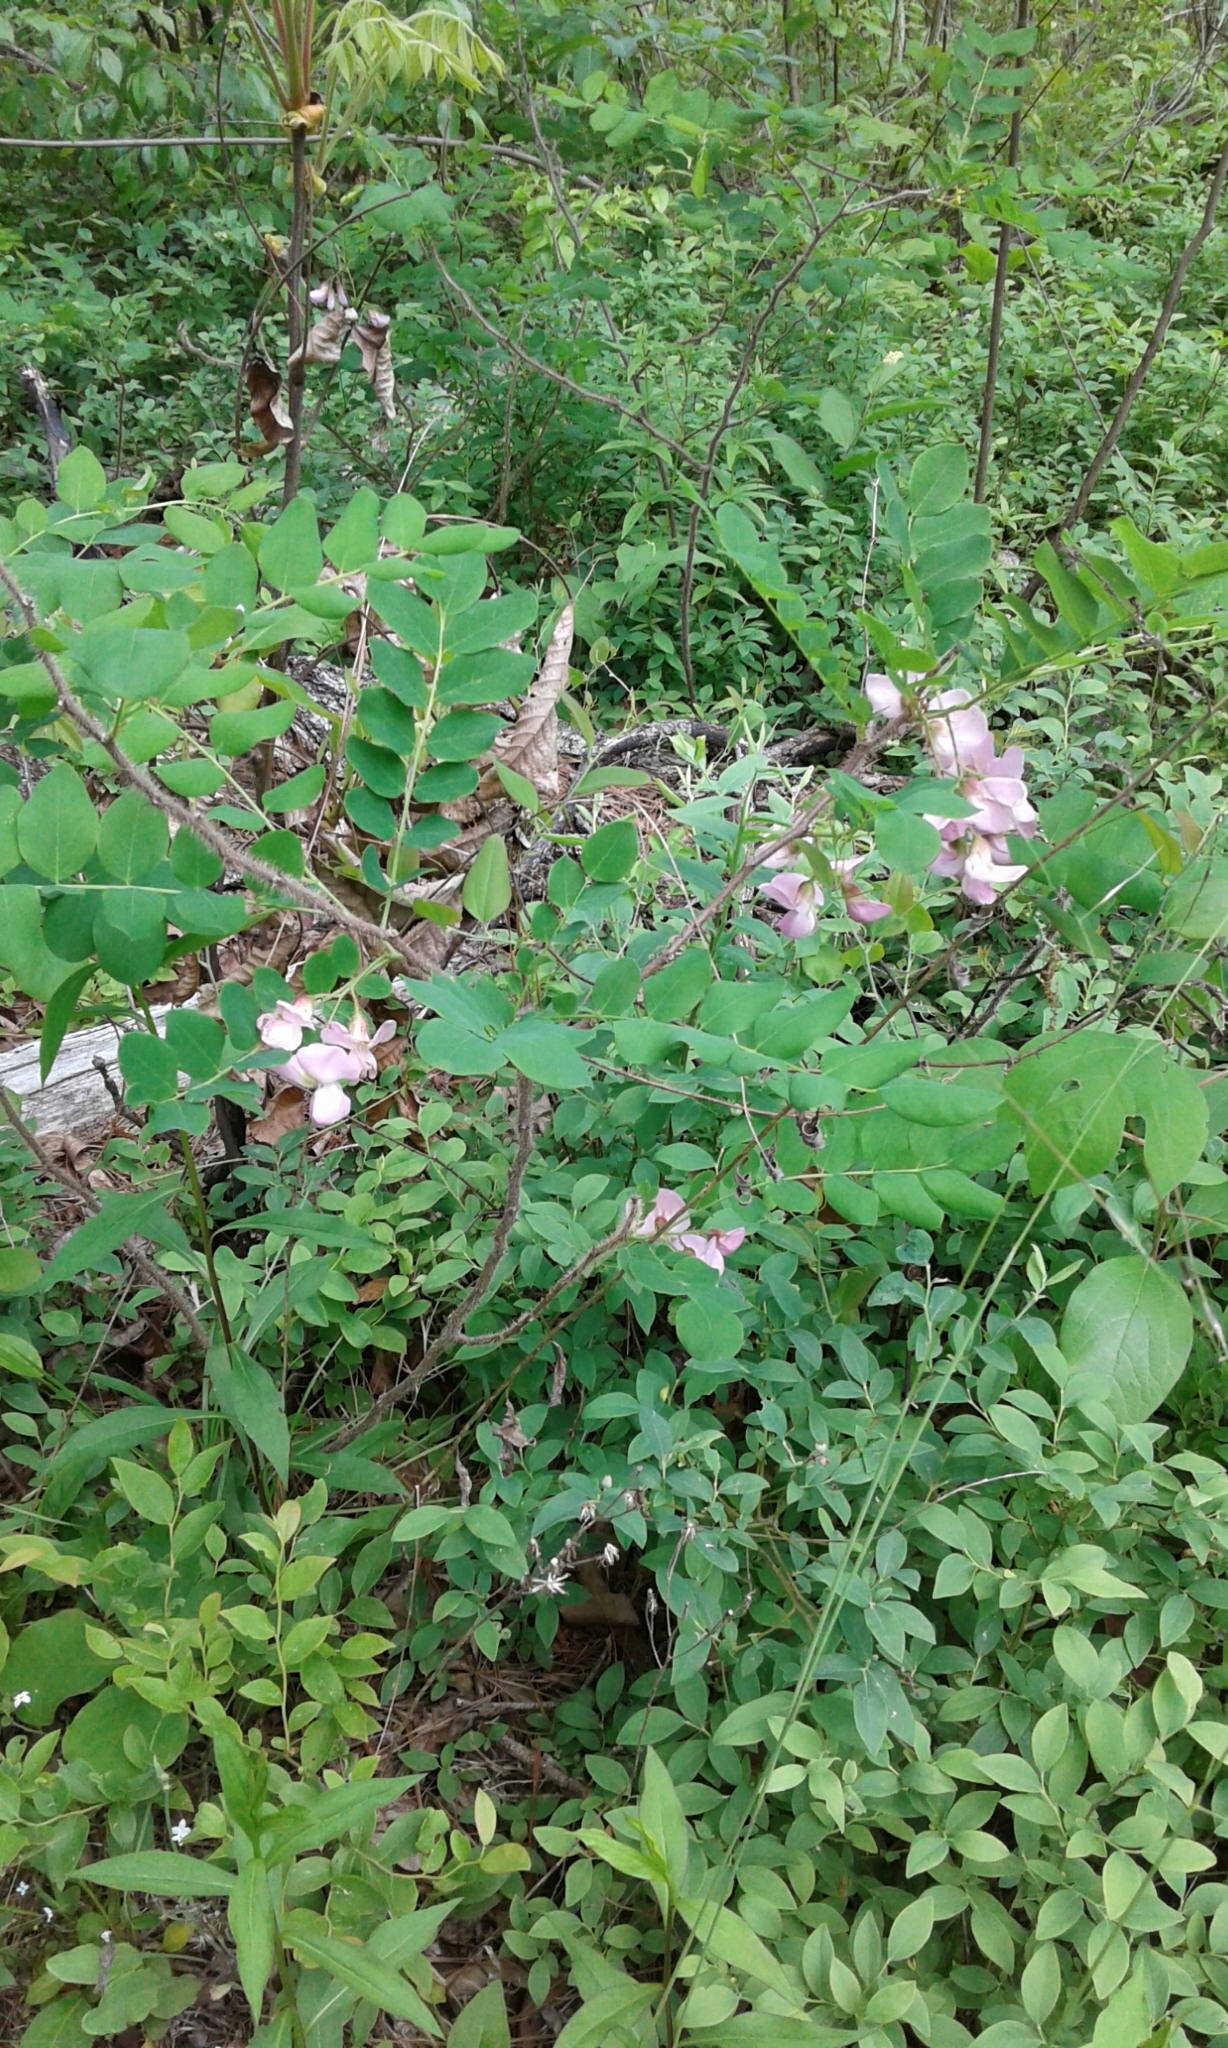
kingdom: Plantae
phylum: Tracheophyta
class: Magnoliopsida
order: Fabales
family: Fabaceae
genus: Robinia
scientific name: Robinia hispida
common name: Bristly locust
